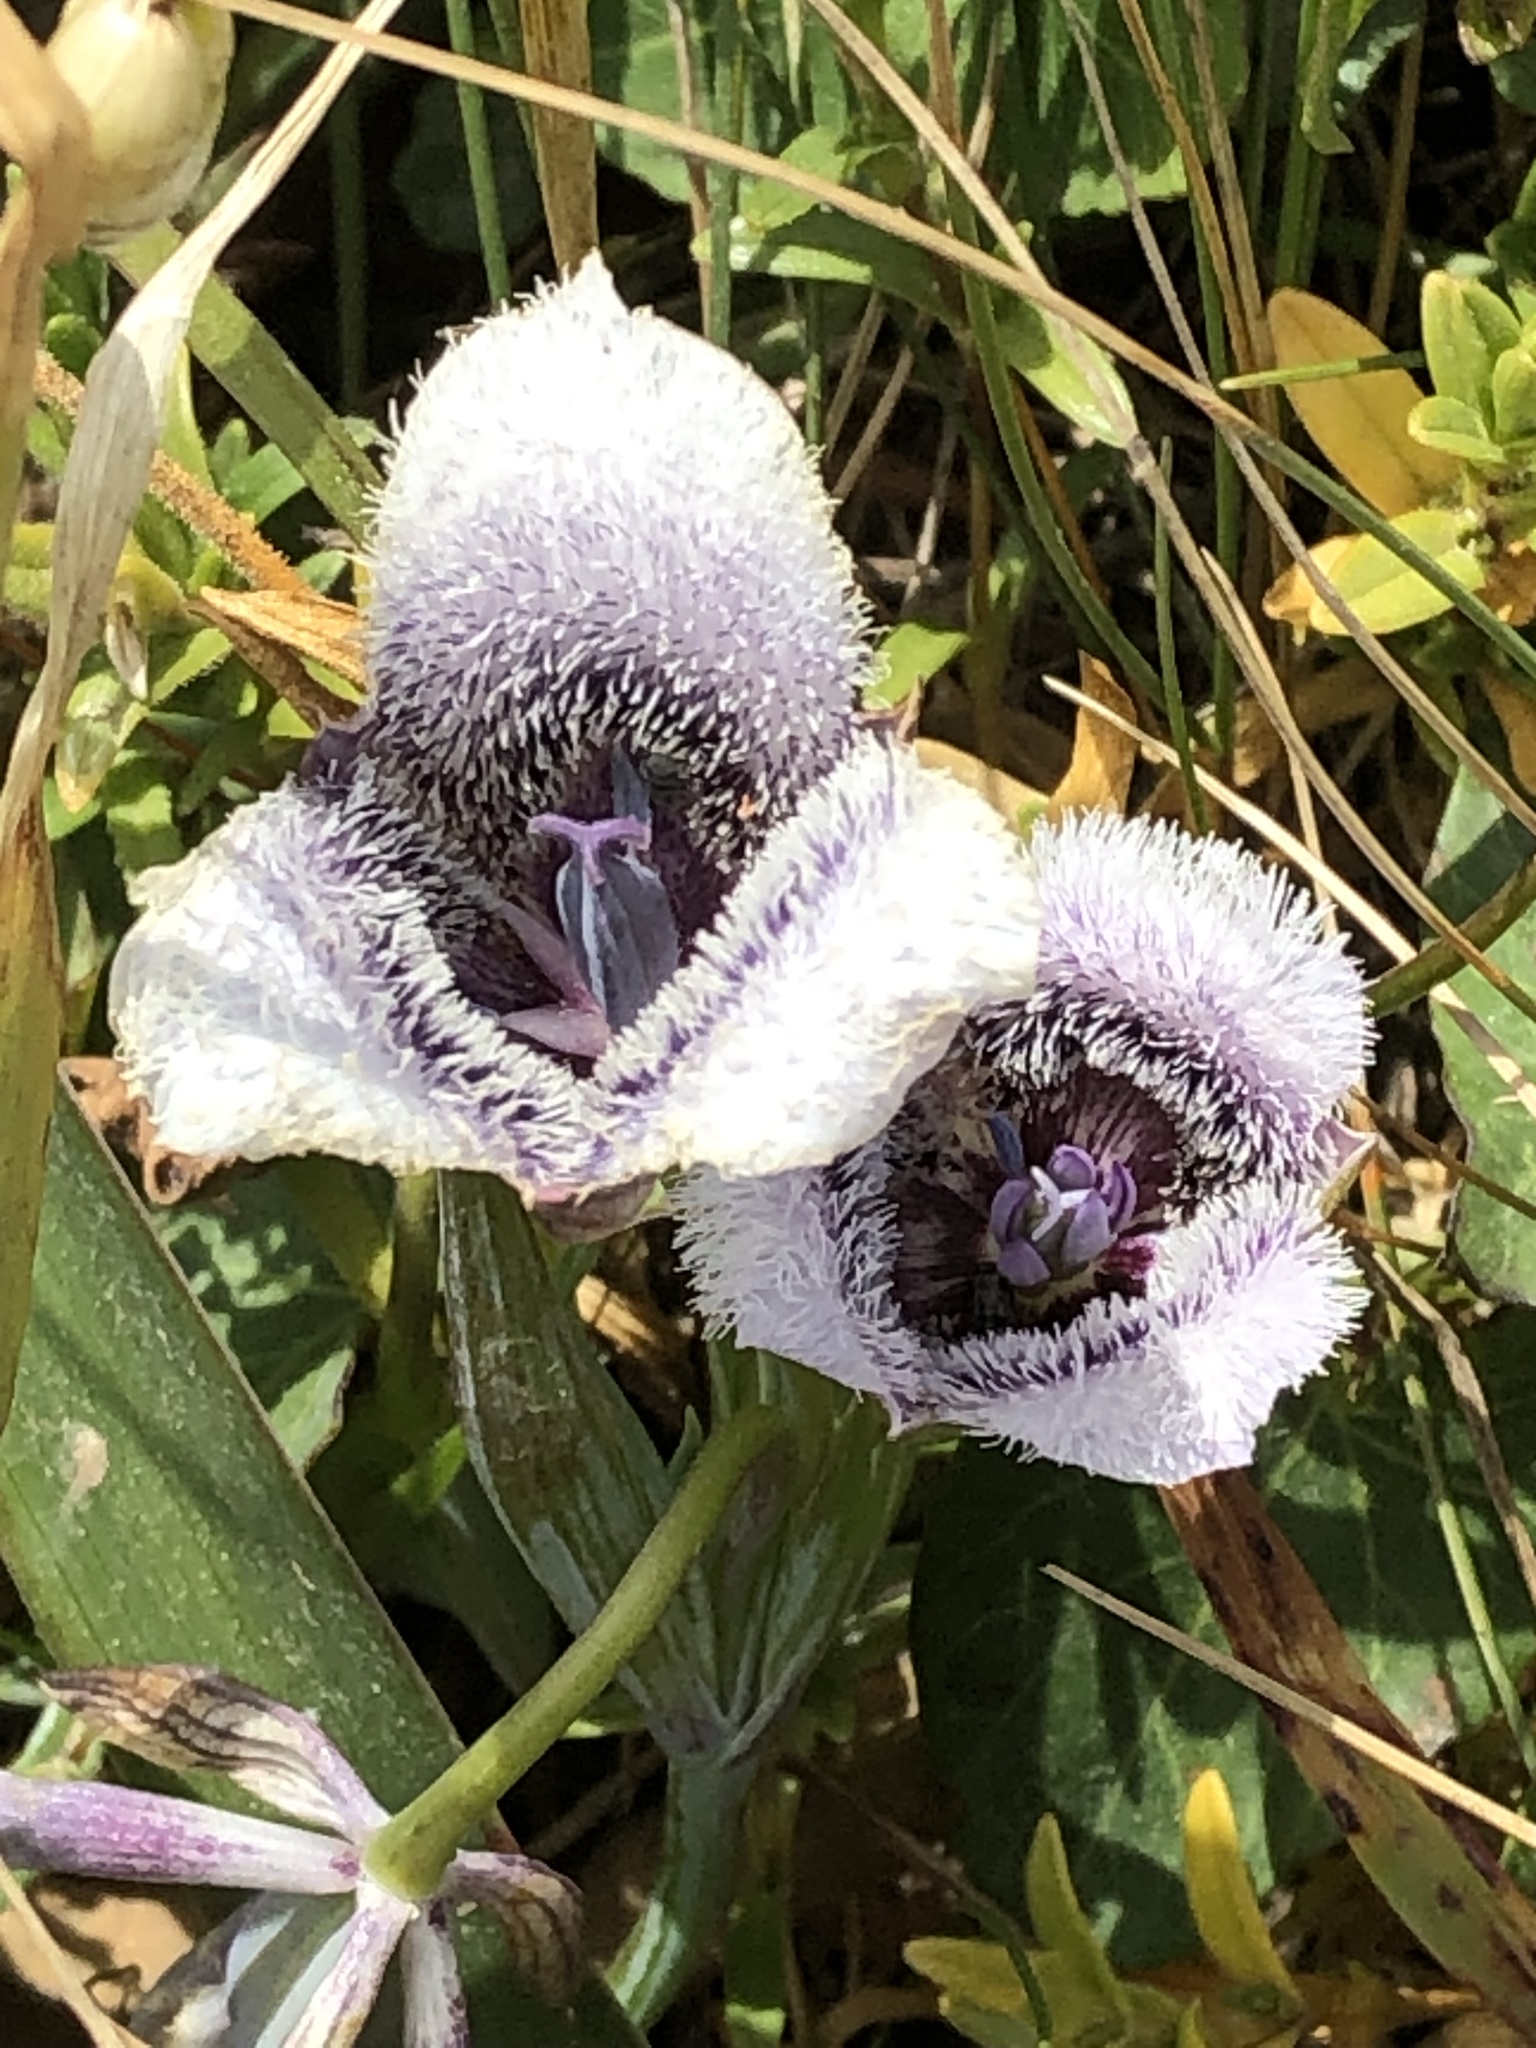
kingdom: Plantae
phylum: Tracheophyta
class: Liliopsida
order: Liliales
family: Liliaceae
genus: Calochortus
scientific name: Calochortus tolmiei
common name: Pussy-ears
